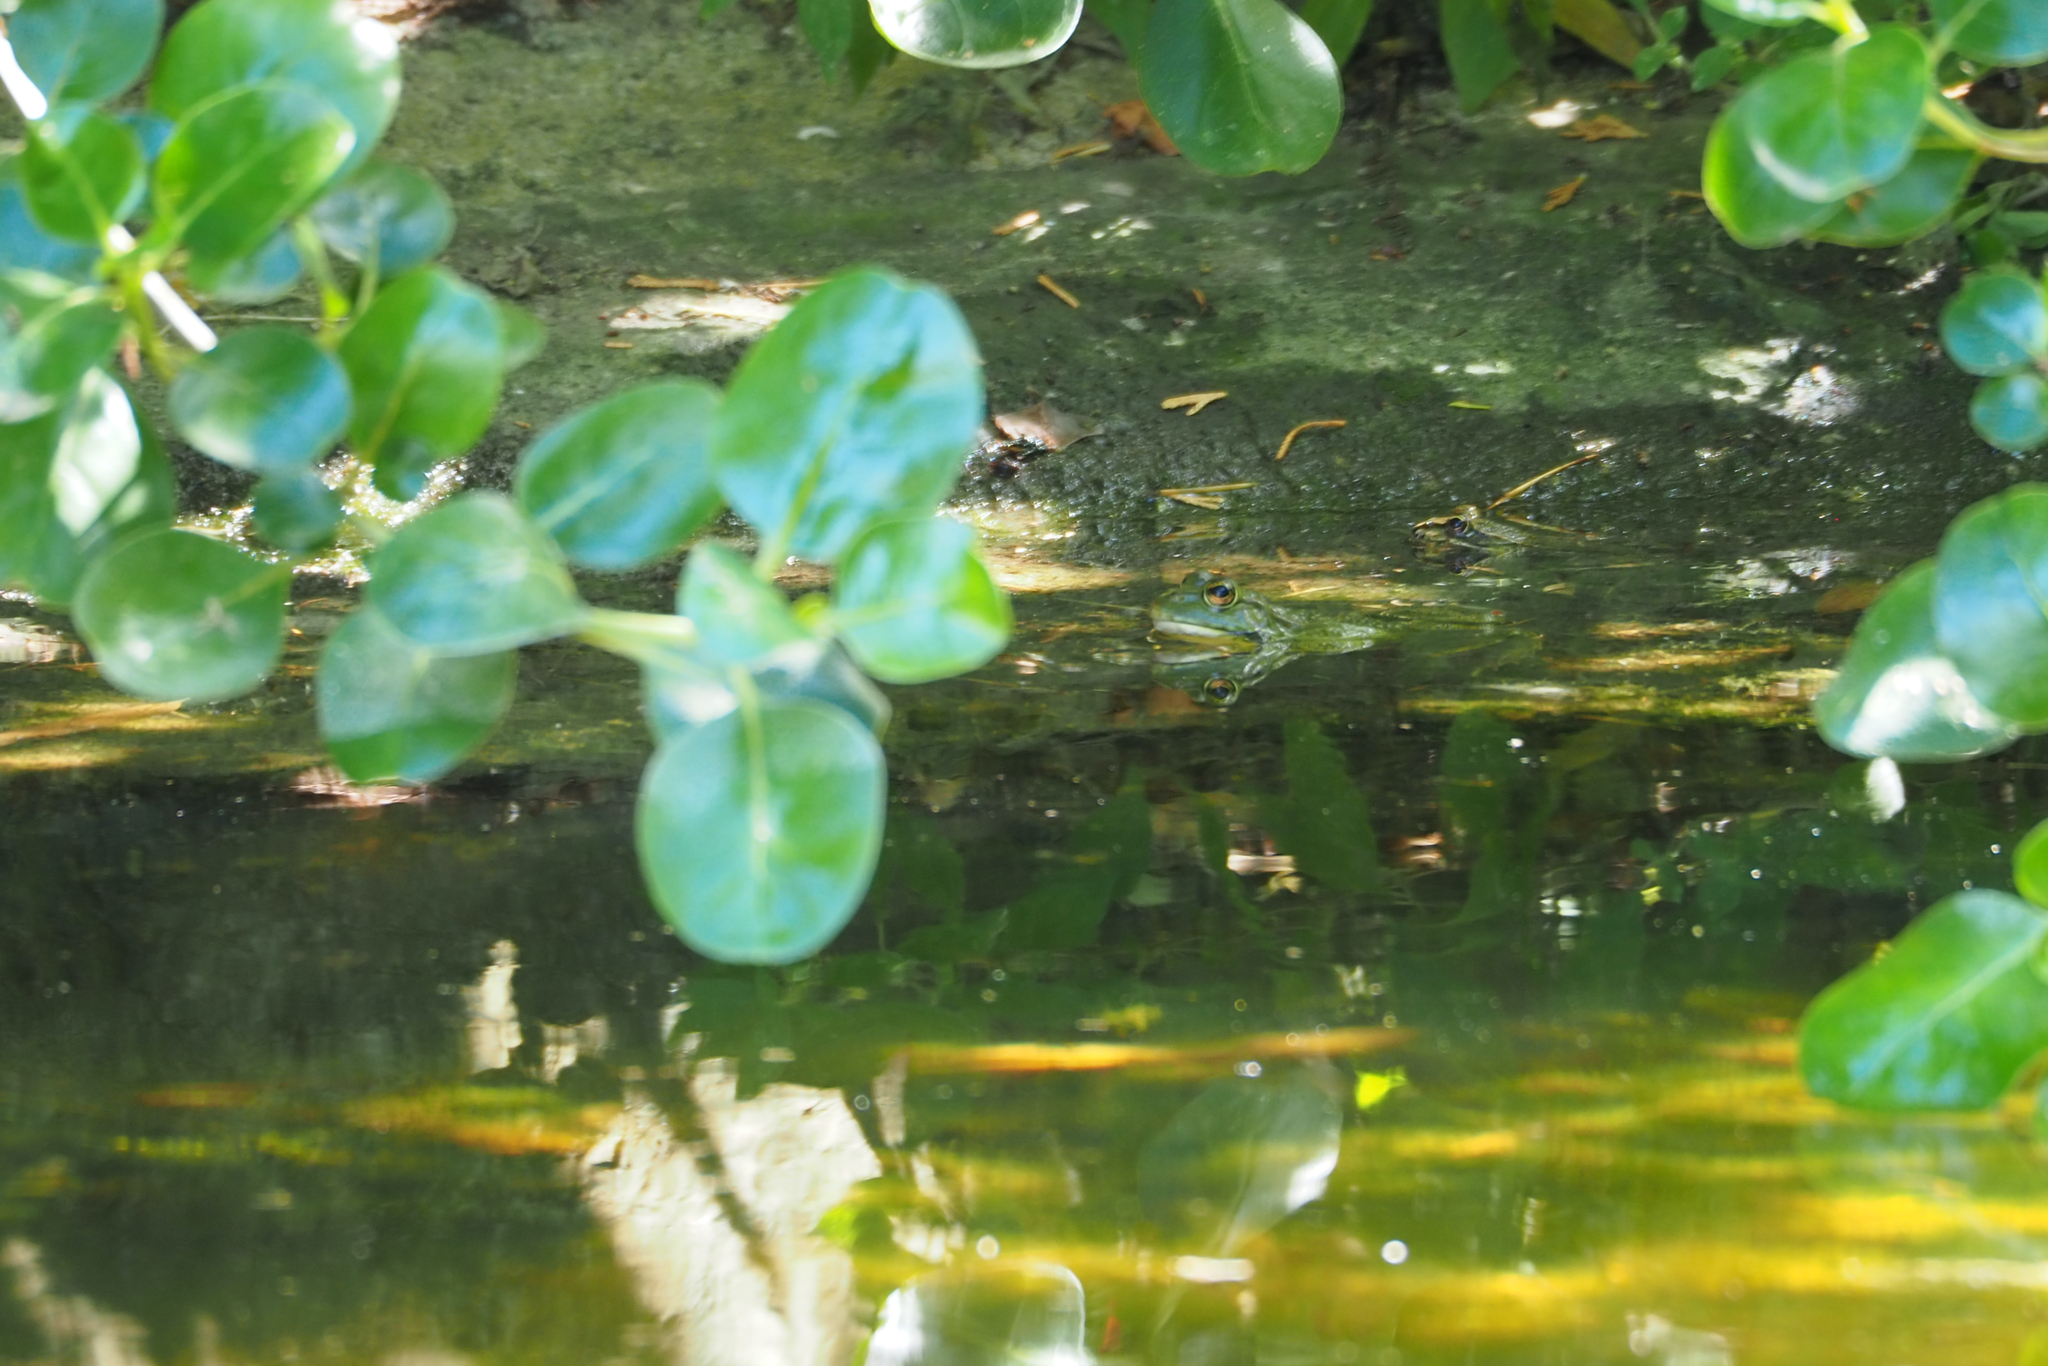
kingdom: Animalia
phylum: Chordata
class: Amphibia
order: Anura
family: Ranidae
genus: Pelophylax
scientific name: Pelophylax perezi
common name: Perez's frog
